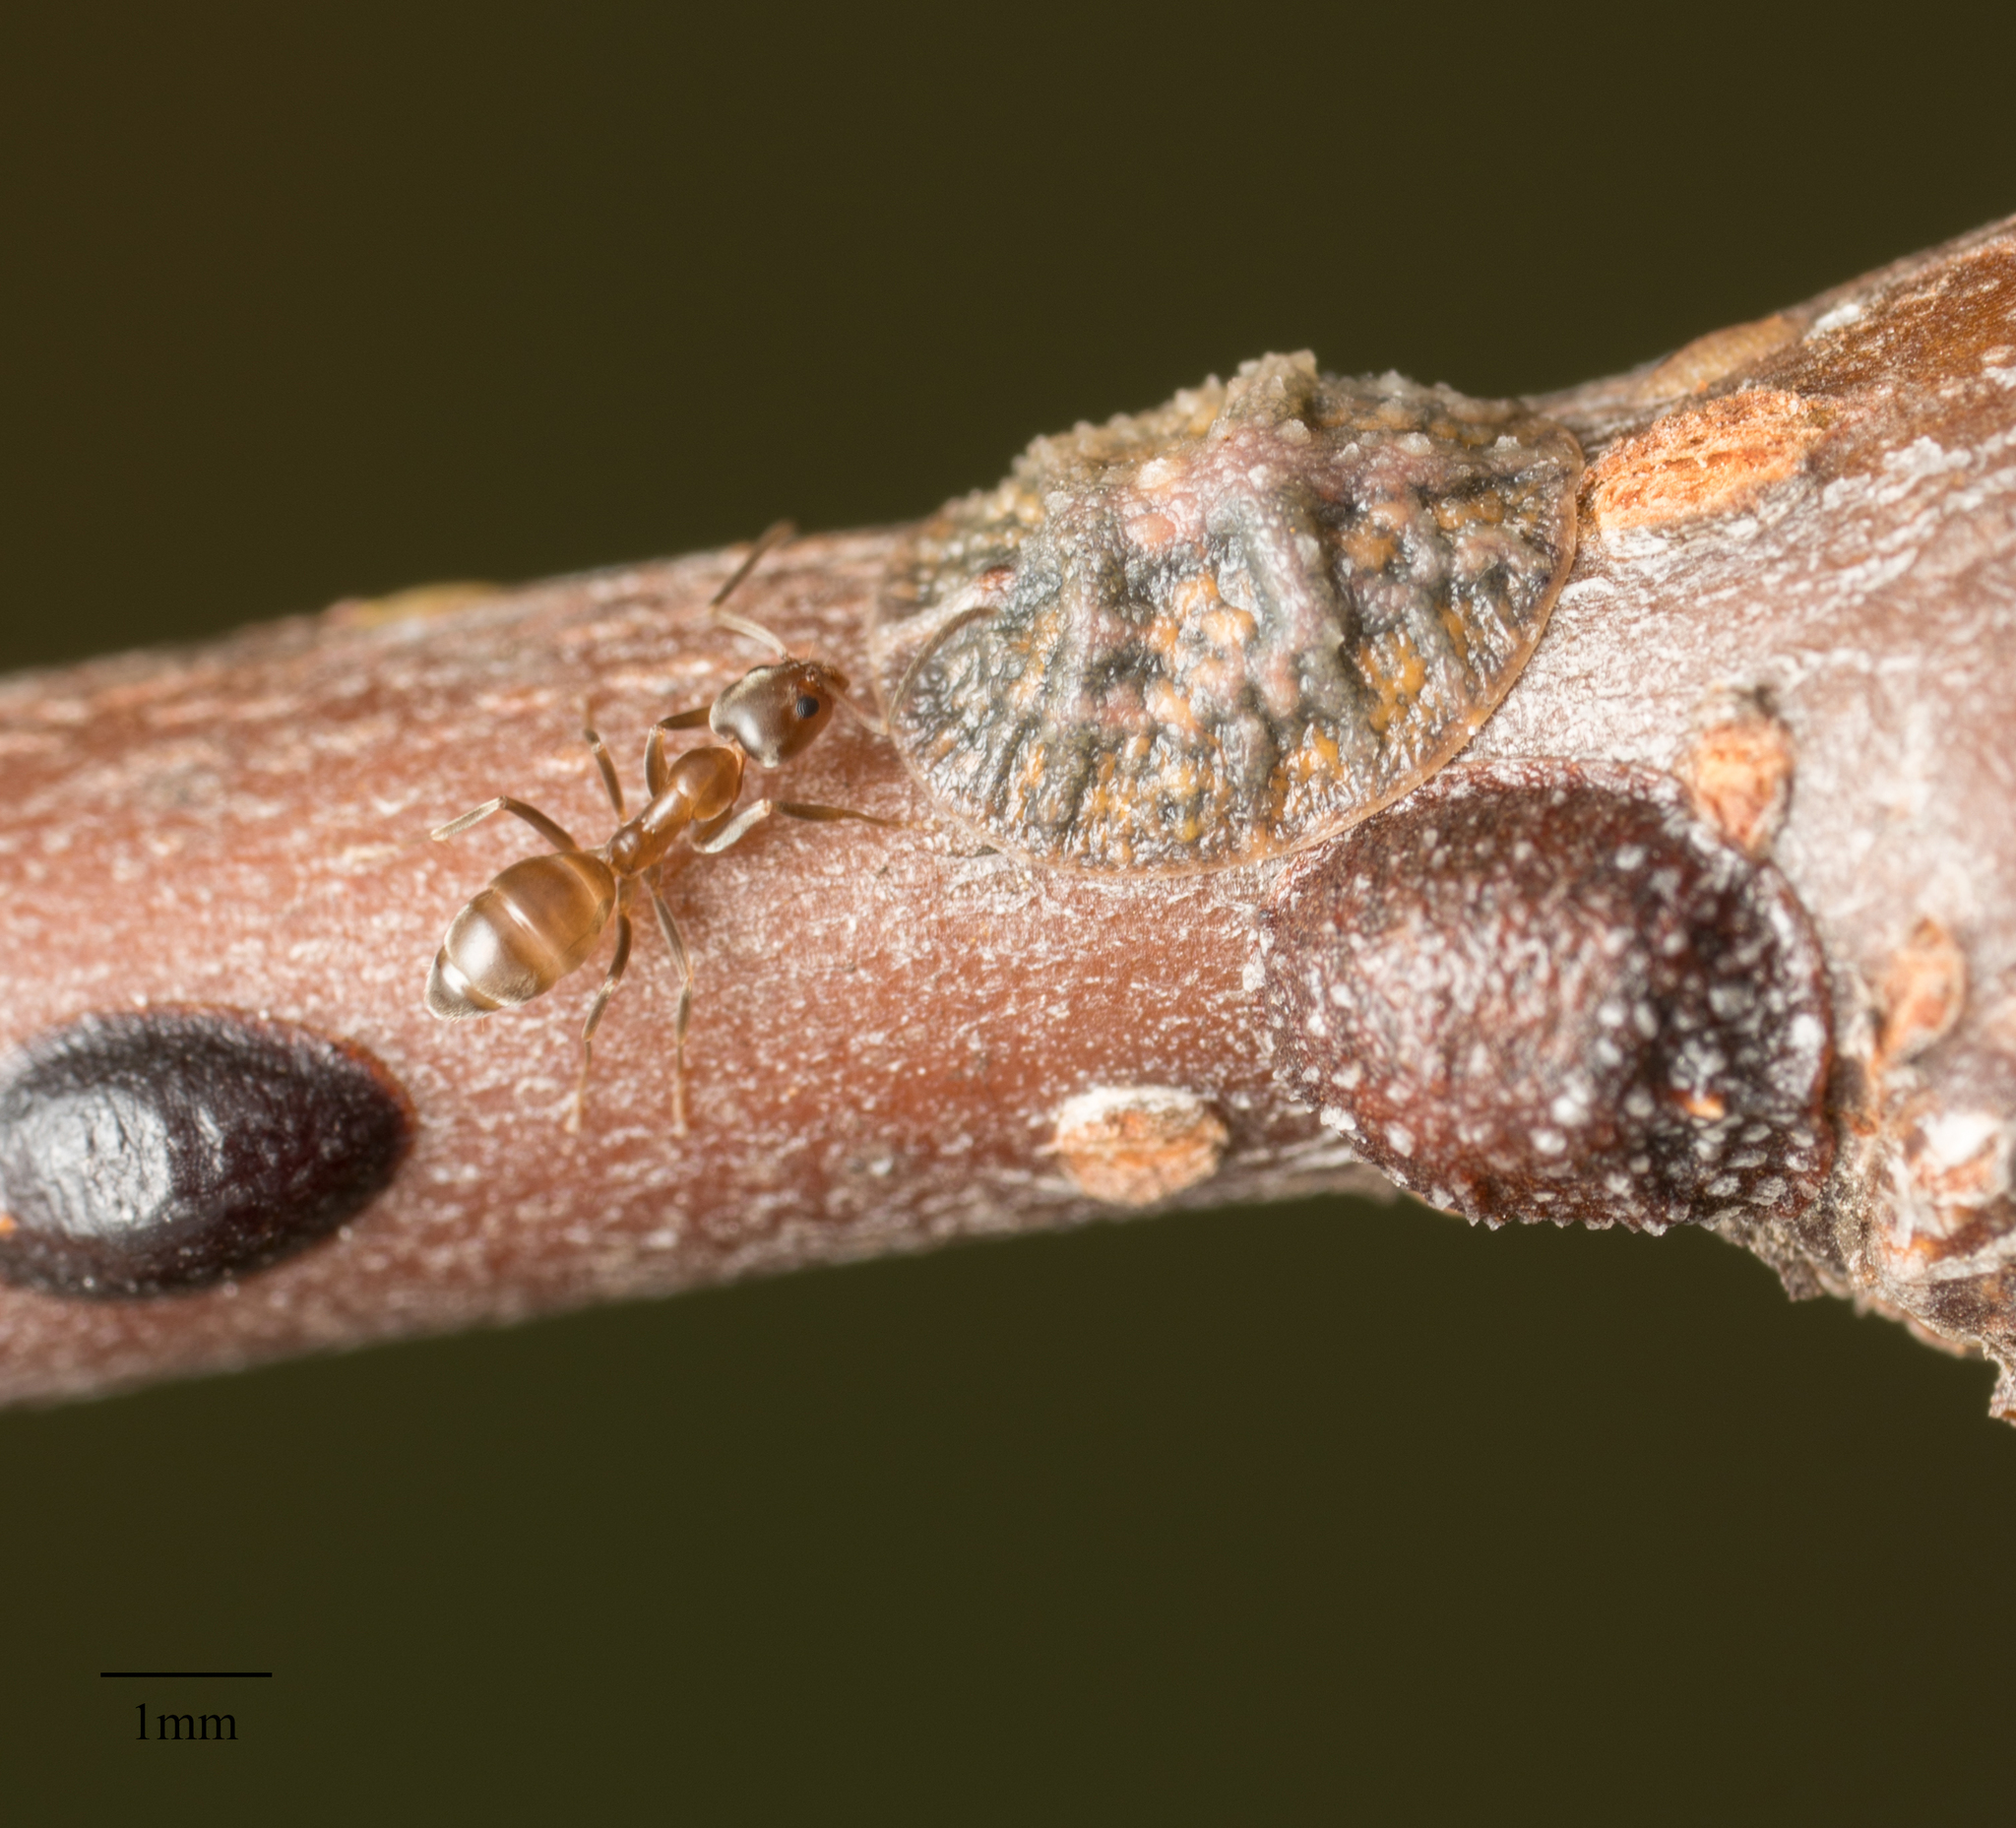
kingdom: Animalia
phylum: Arthropoda
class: Insecta
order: Hymenoptera
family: Formicidae
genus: Linepithema
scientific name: Linepithema humile
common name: Argentine ant
